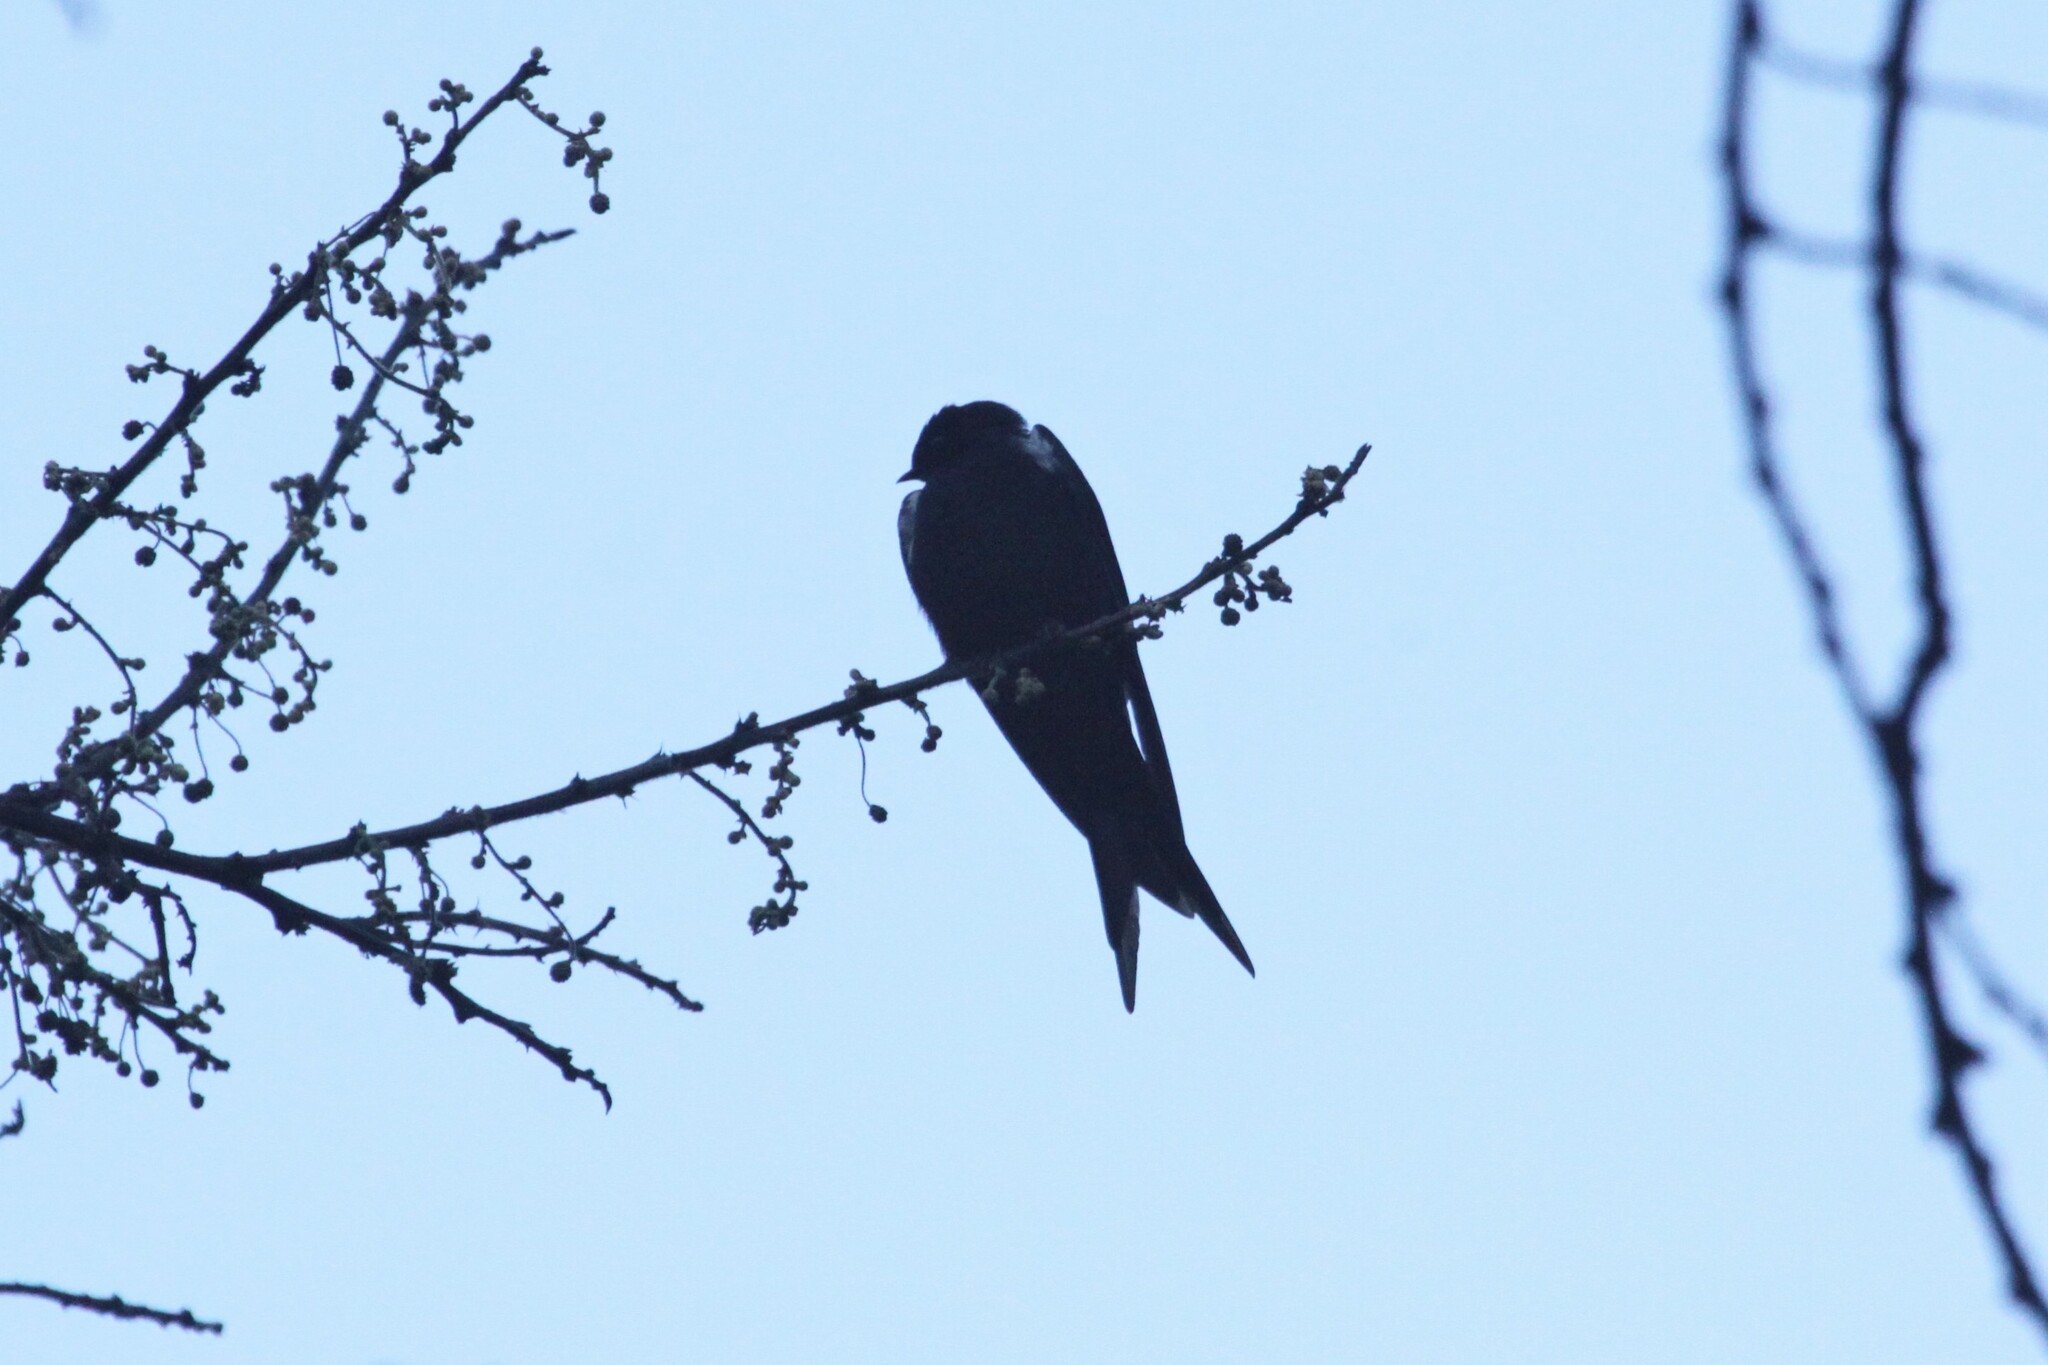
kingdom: Animalia
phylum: Chordata
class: Aves
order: Passeriformes
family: Hirundinidae
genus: Psalidoprocne
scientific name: Psalidoprocne pristoptera
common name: Black saw-wing
